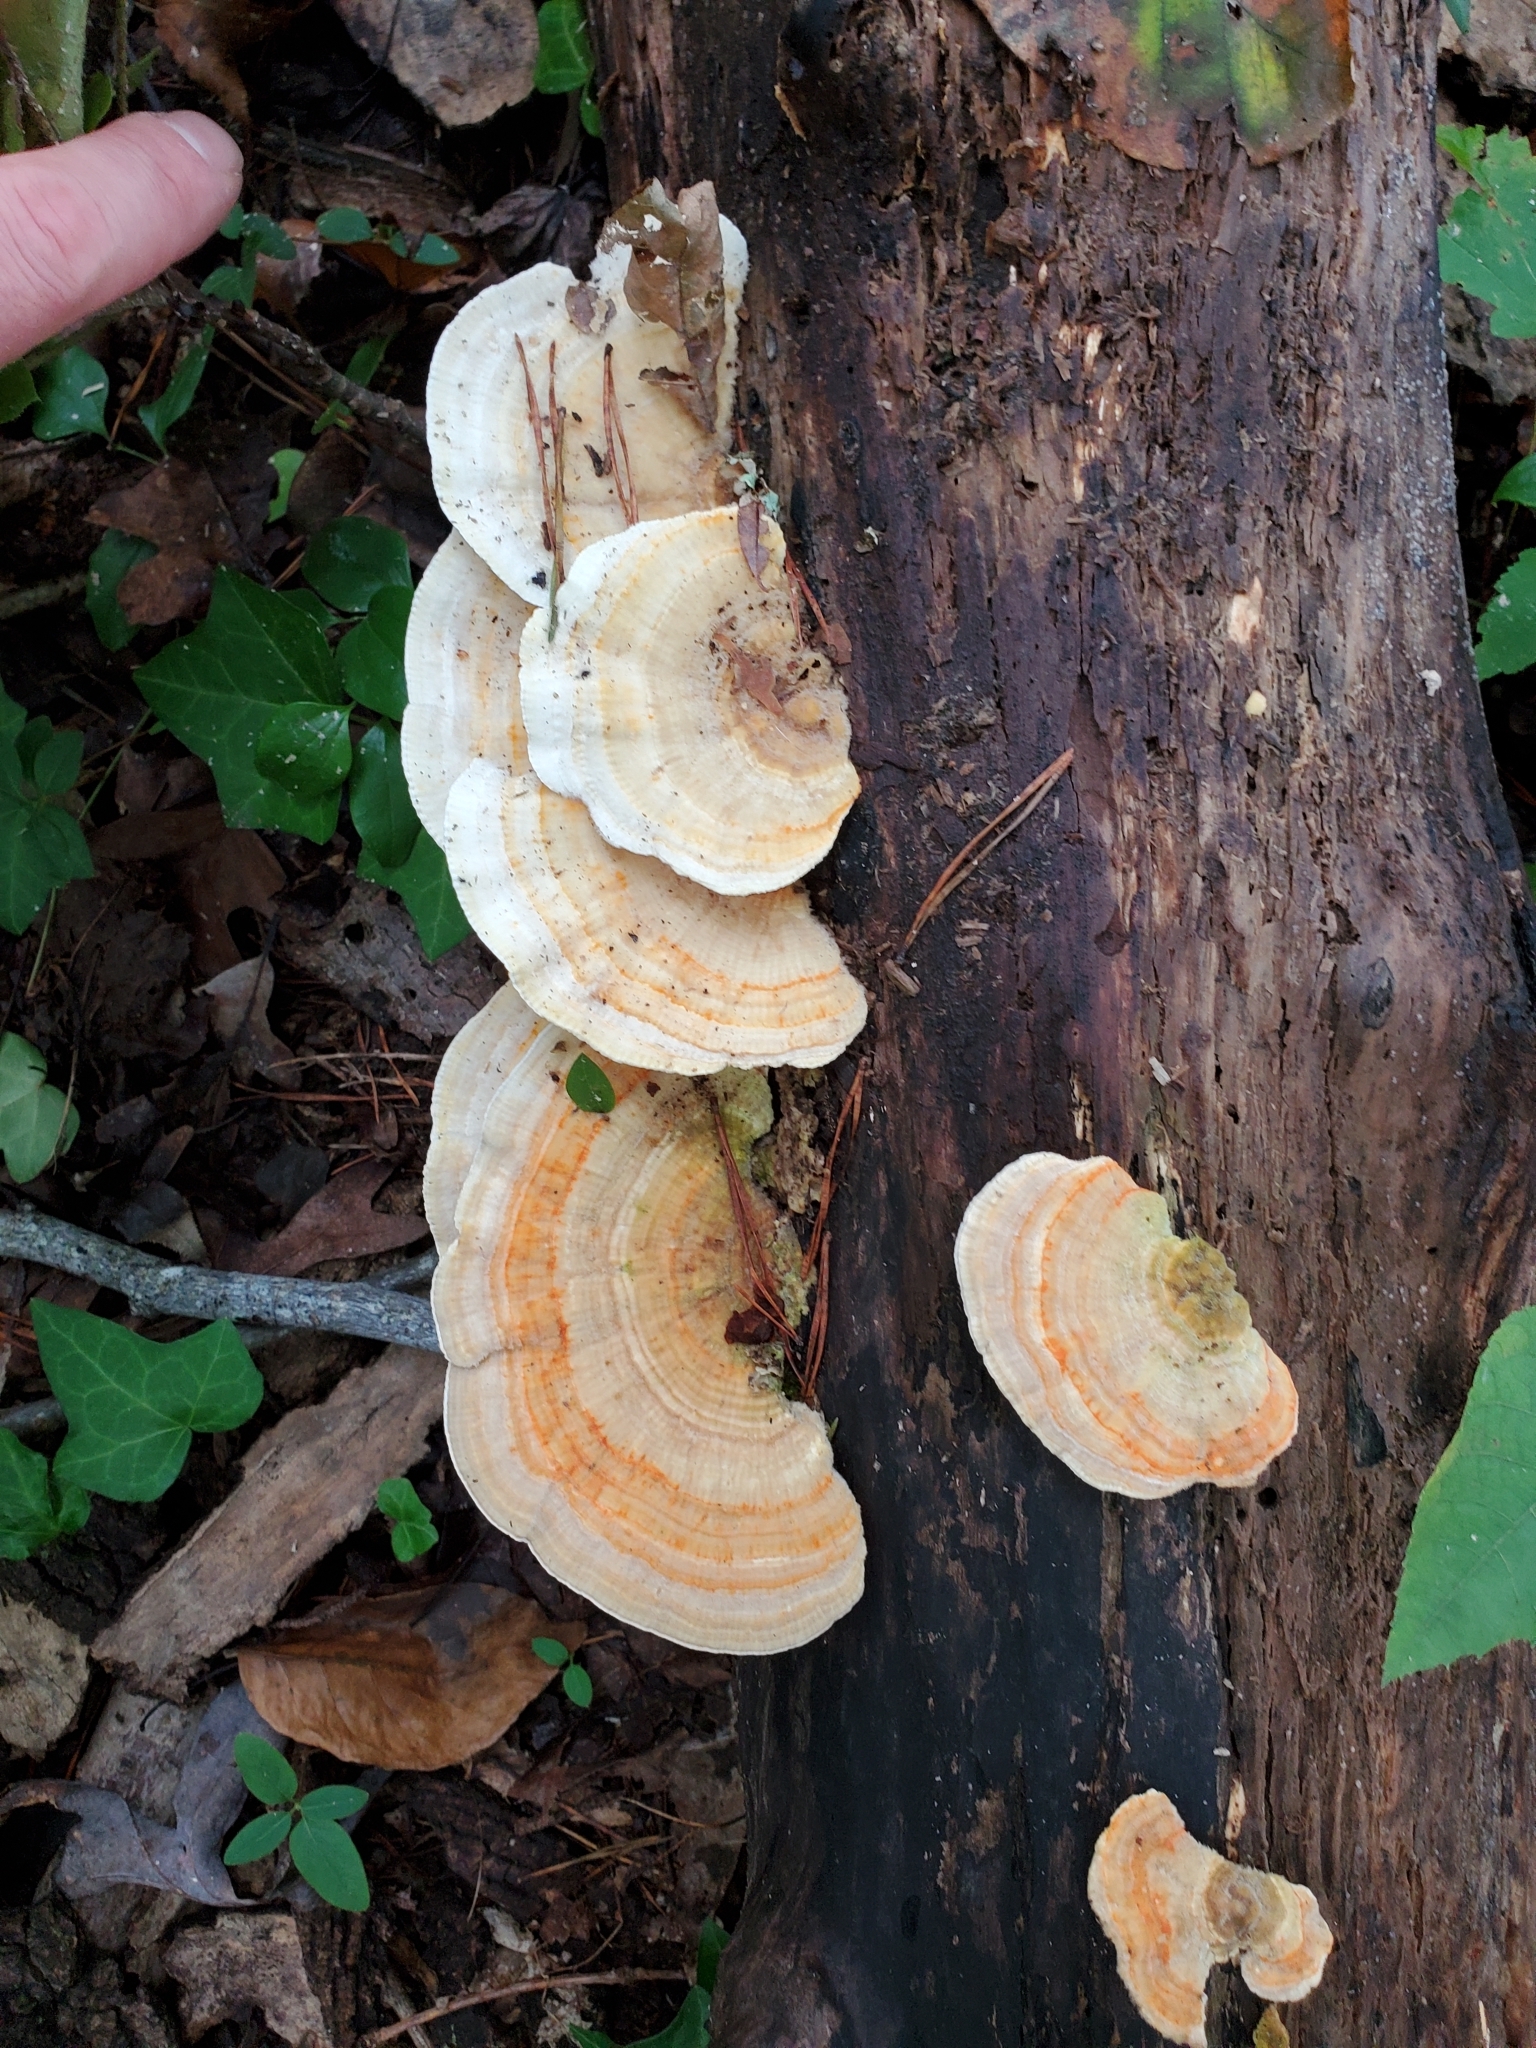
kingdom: Fungi
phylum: Basidiomycota
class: Agaricomycetes
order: Polyporales
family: Polyporaceae
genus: Lenzites
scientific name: Lenzites betulinus
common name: Birch mazegill
